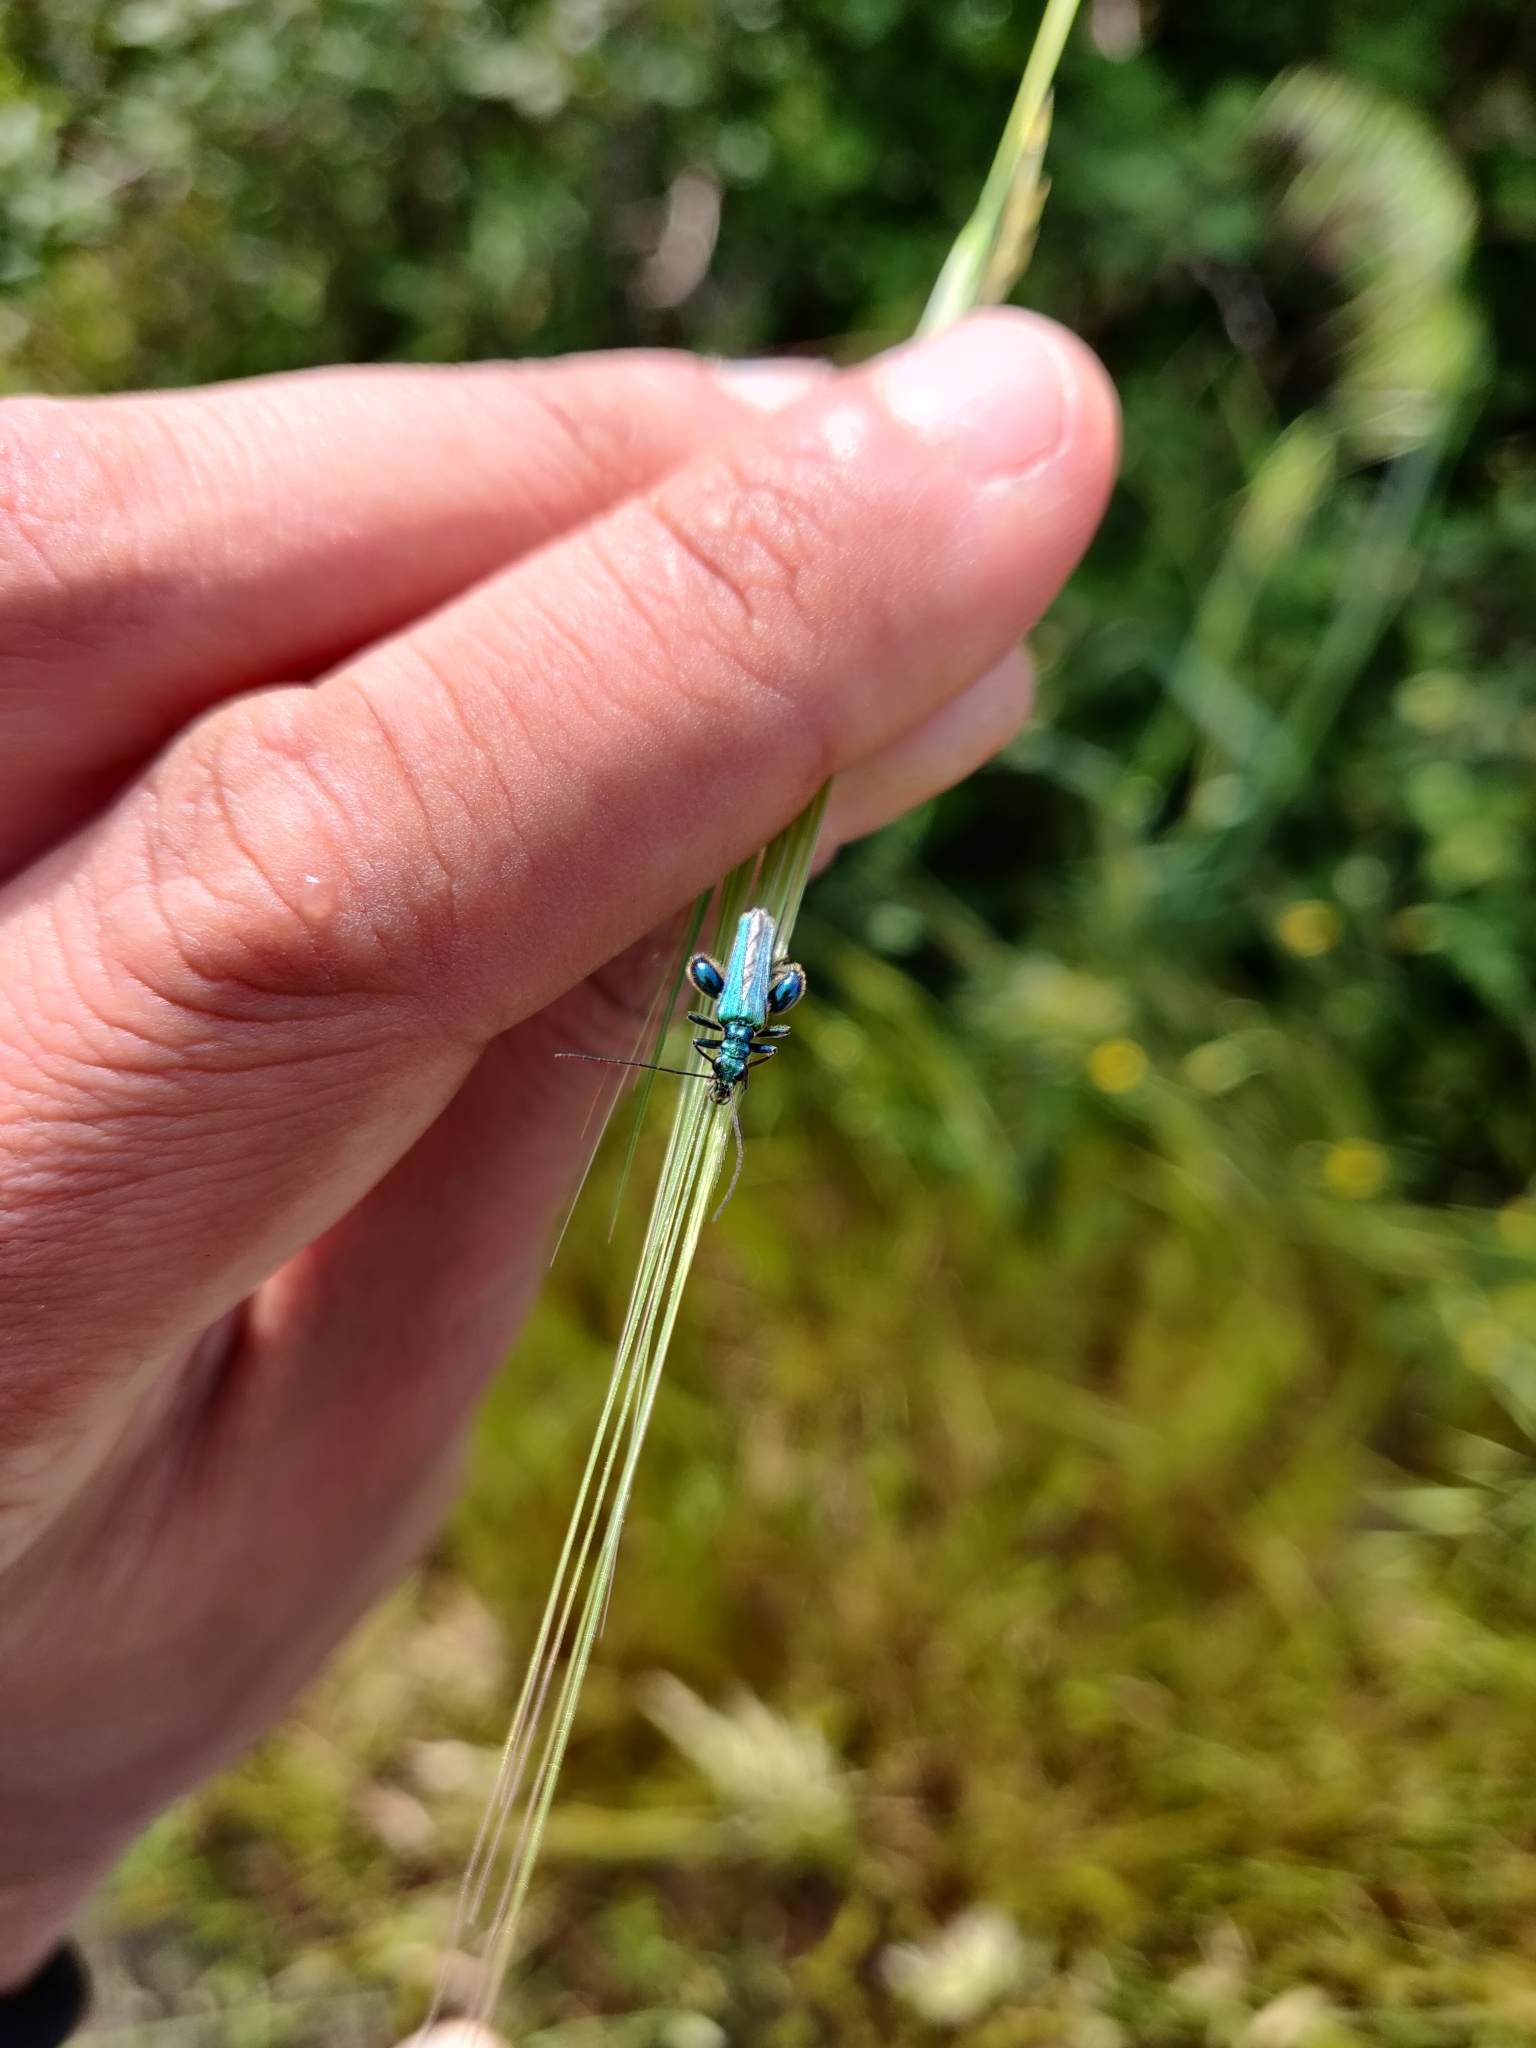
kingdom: Animalia
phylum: Arthropoda
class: Insecta
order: Coleoptera
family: Oedemeridae
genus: Oedemera
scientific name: Oedemera nobilis
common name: Swollen-thighed beetle
